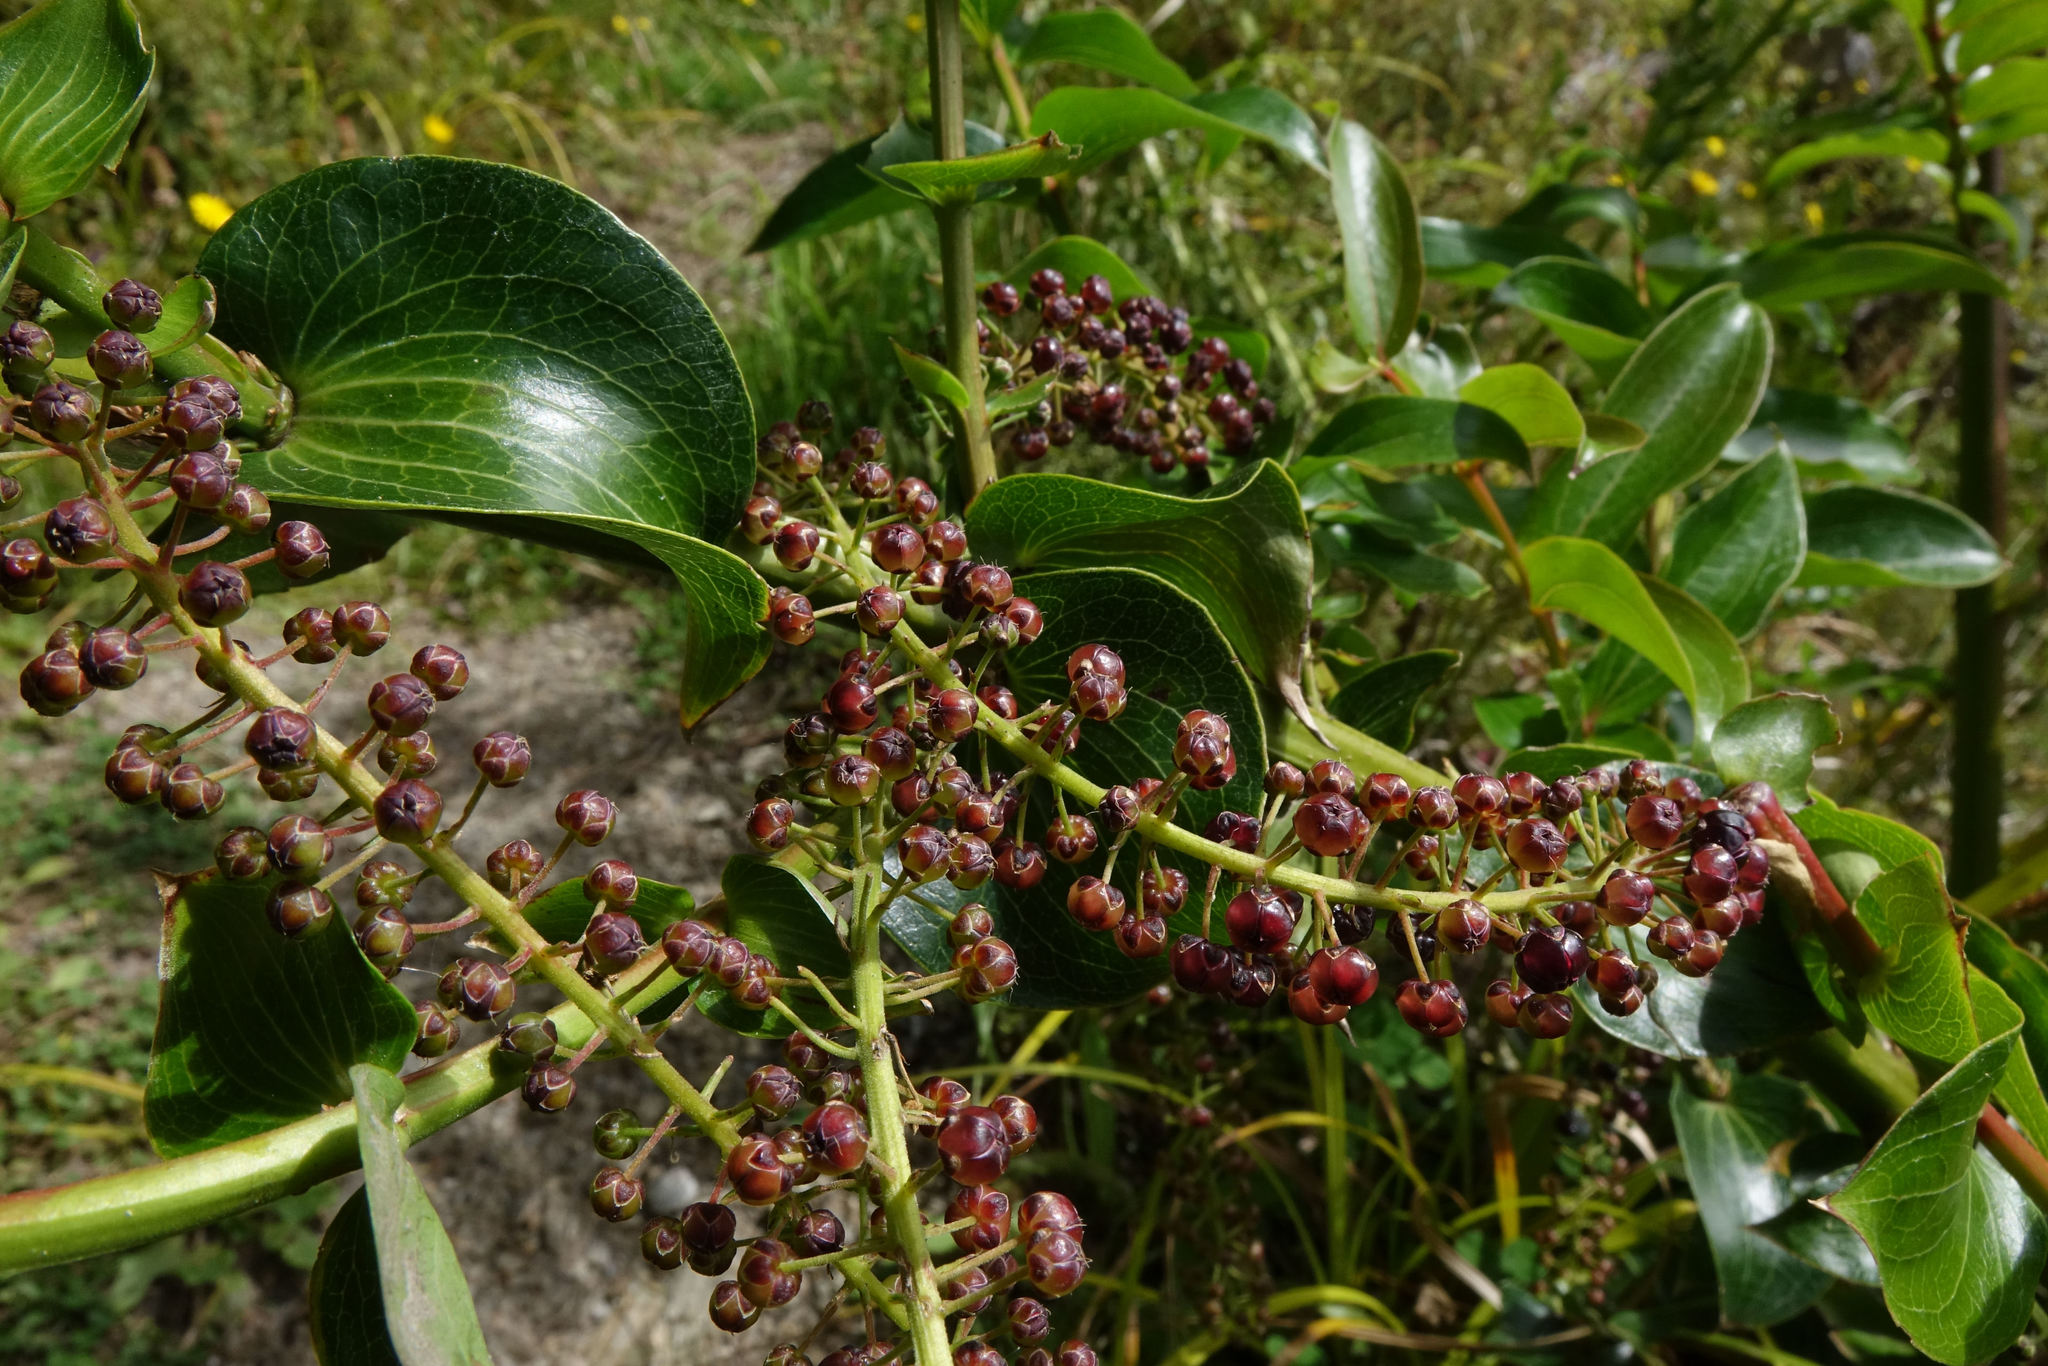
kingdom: Plantae
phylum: Tracheophyta
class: Magnoliopsida
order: Cucurbitales
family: Coriariaceae
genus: Coriaria
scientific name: Coriaria arborea
